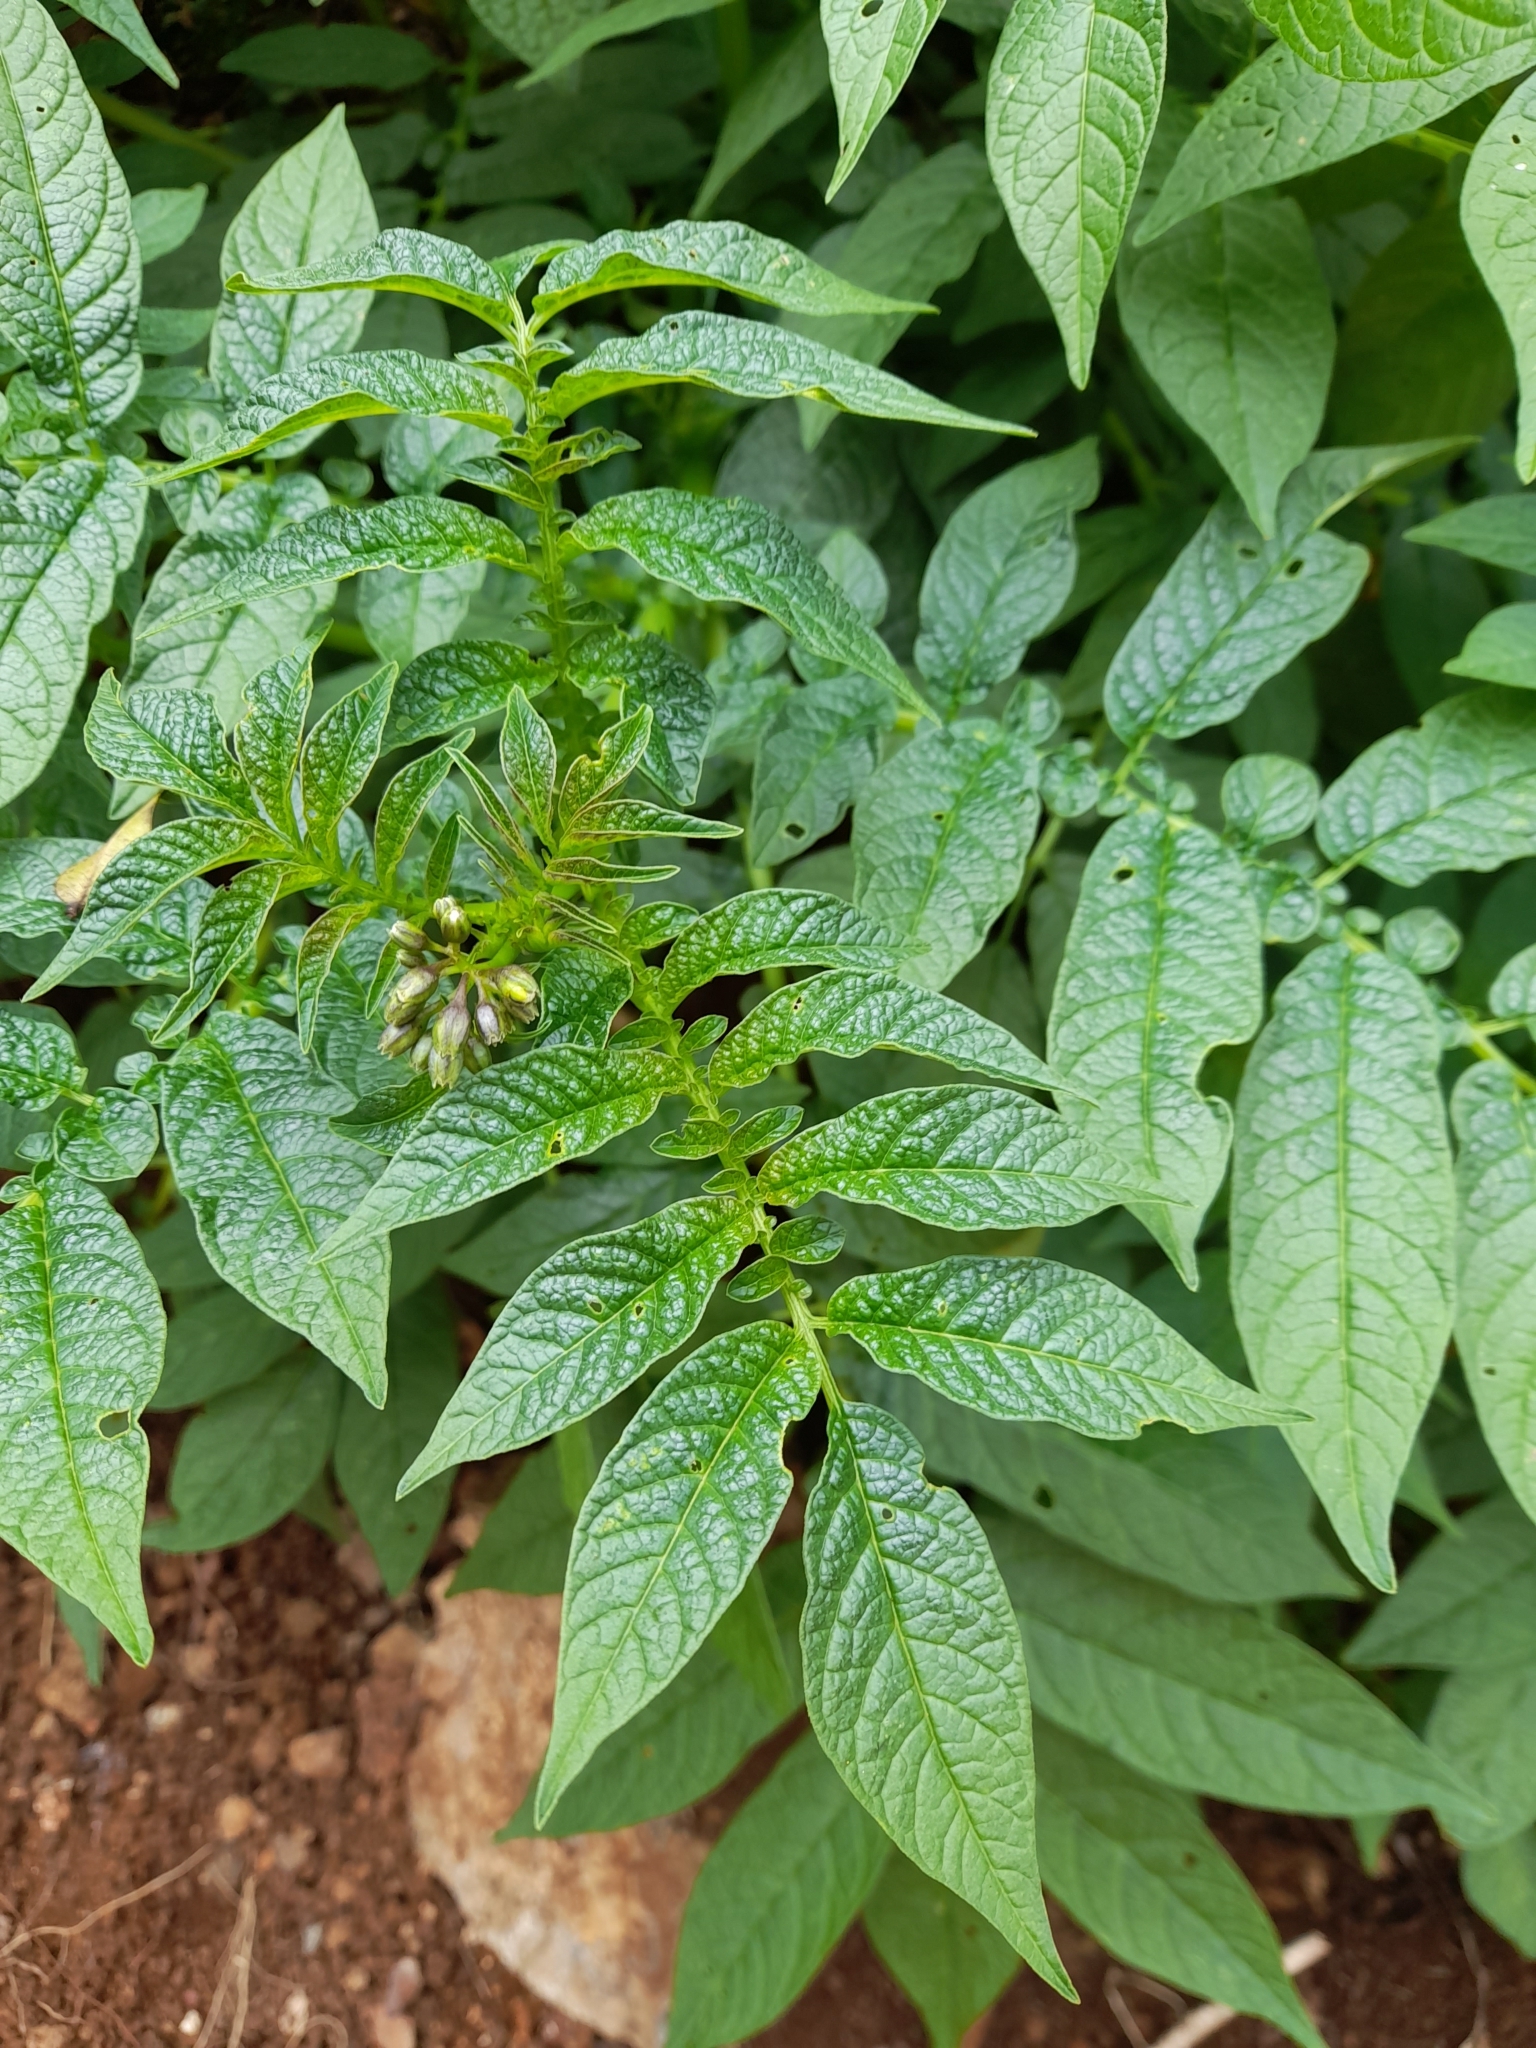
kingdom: Plantae
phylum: Tracheophyta
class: Magnoliopsida
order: Solanales
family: Solanaceae
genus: Solanum
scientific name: Solanum fernandezianum
